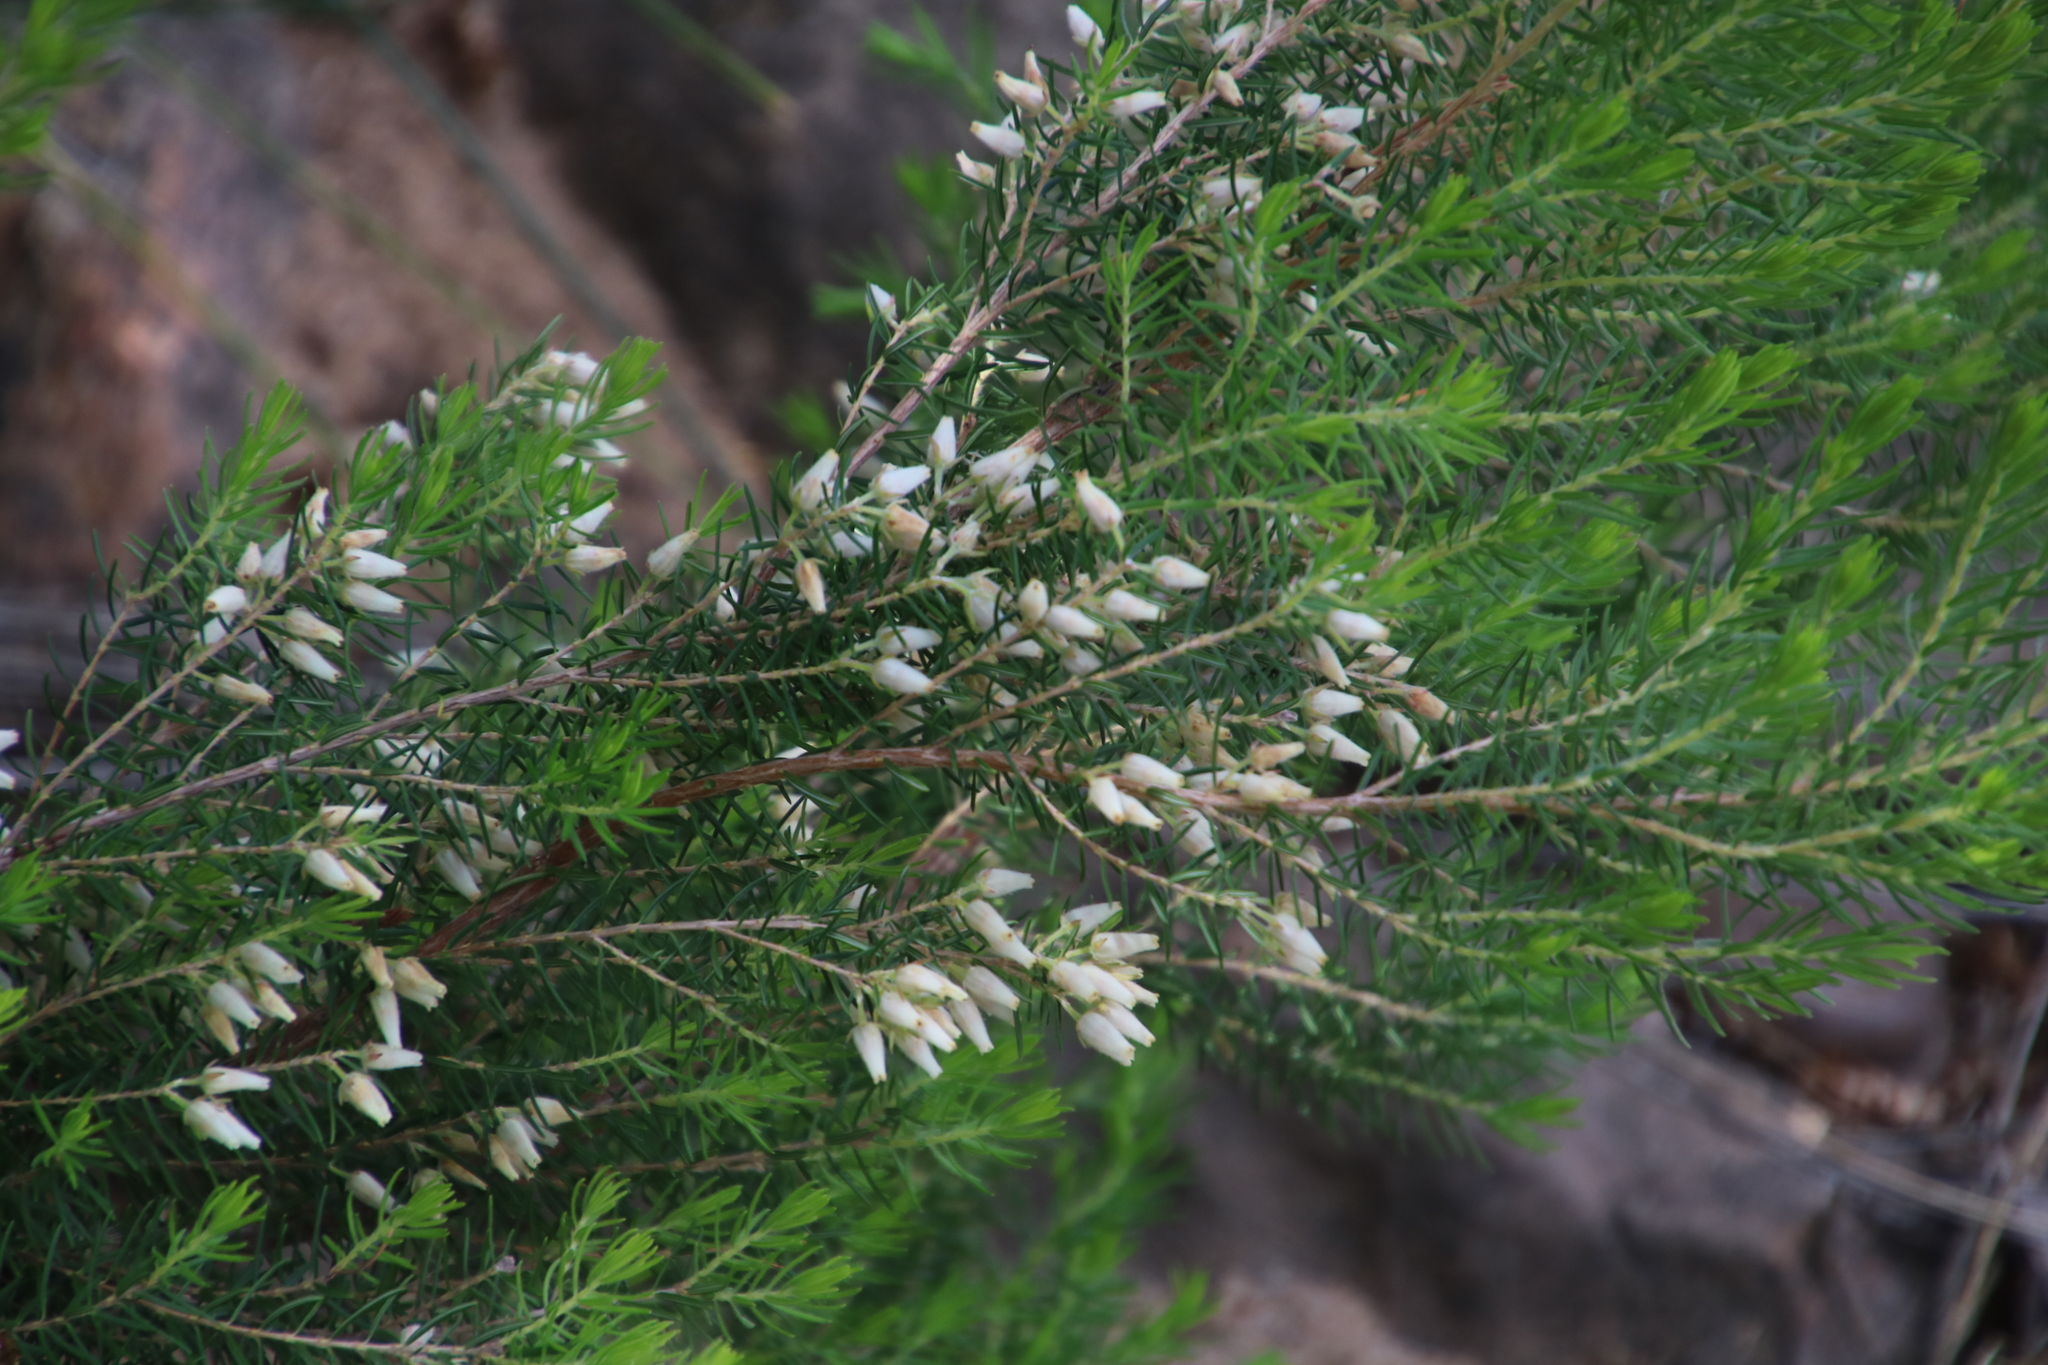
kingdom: Plantae
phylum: Tracheophyta
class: Magnoliopsida
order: Ericales
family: Ericaceae
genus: Erica
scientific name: Erica caffra
